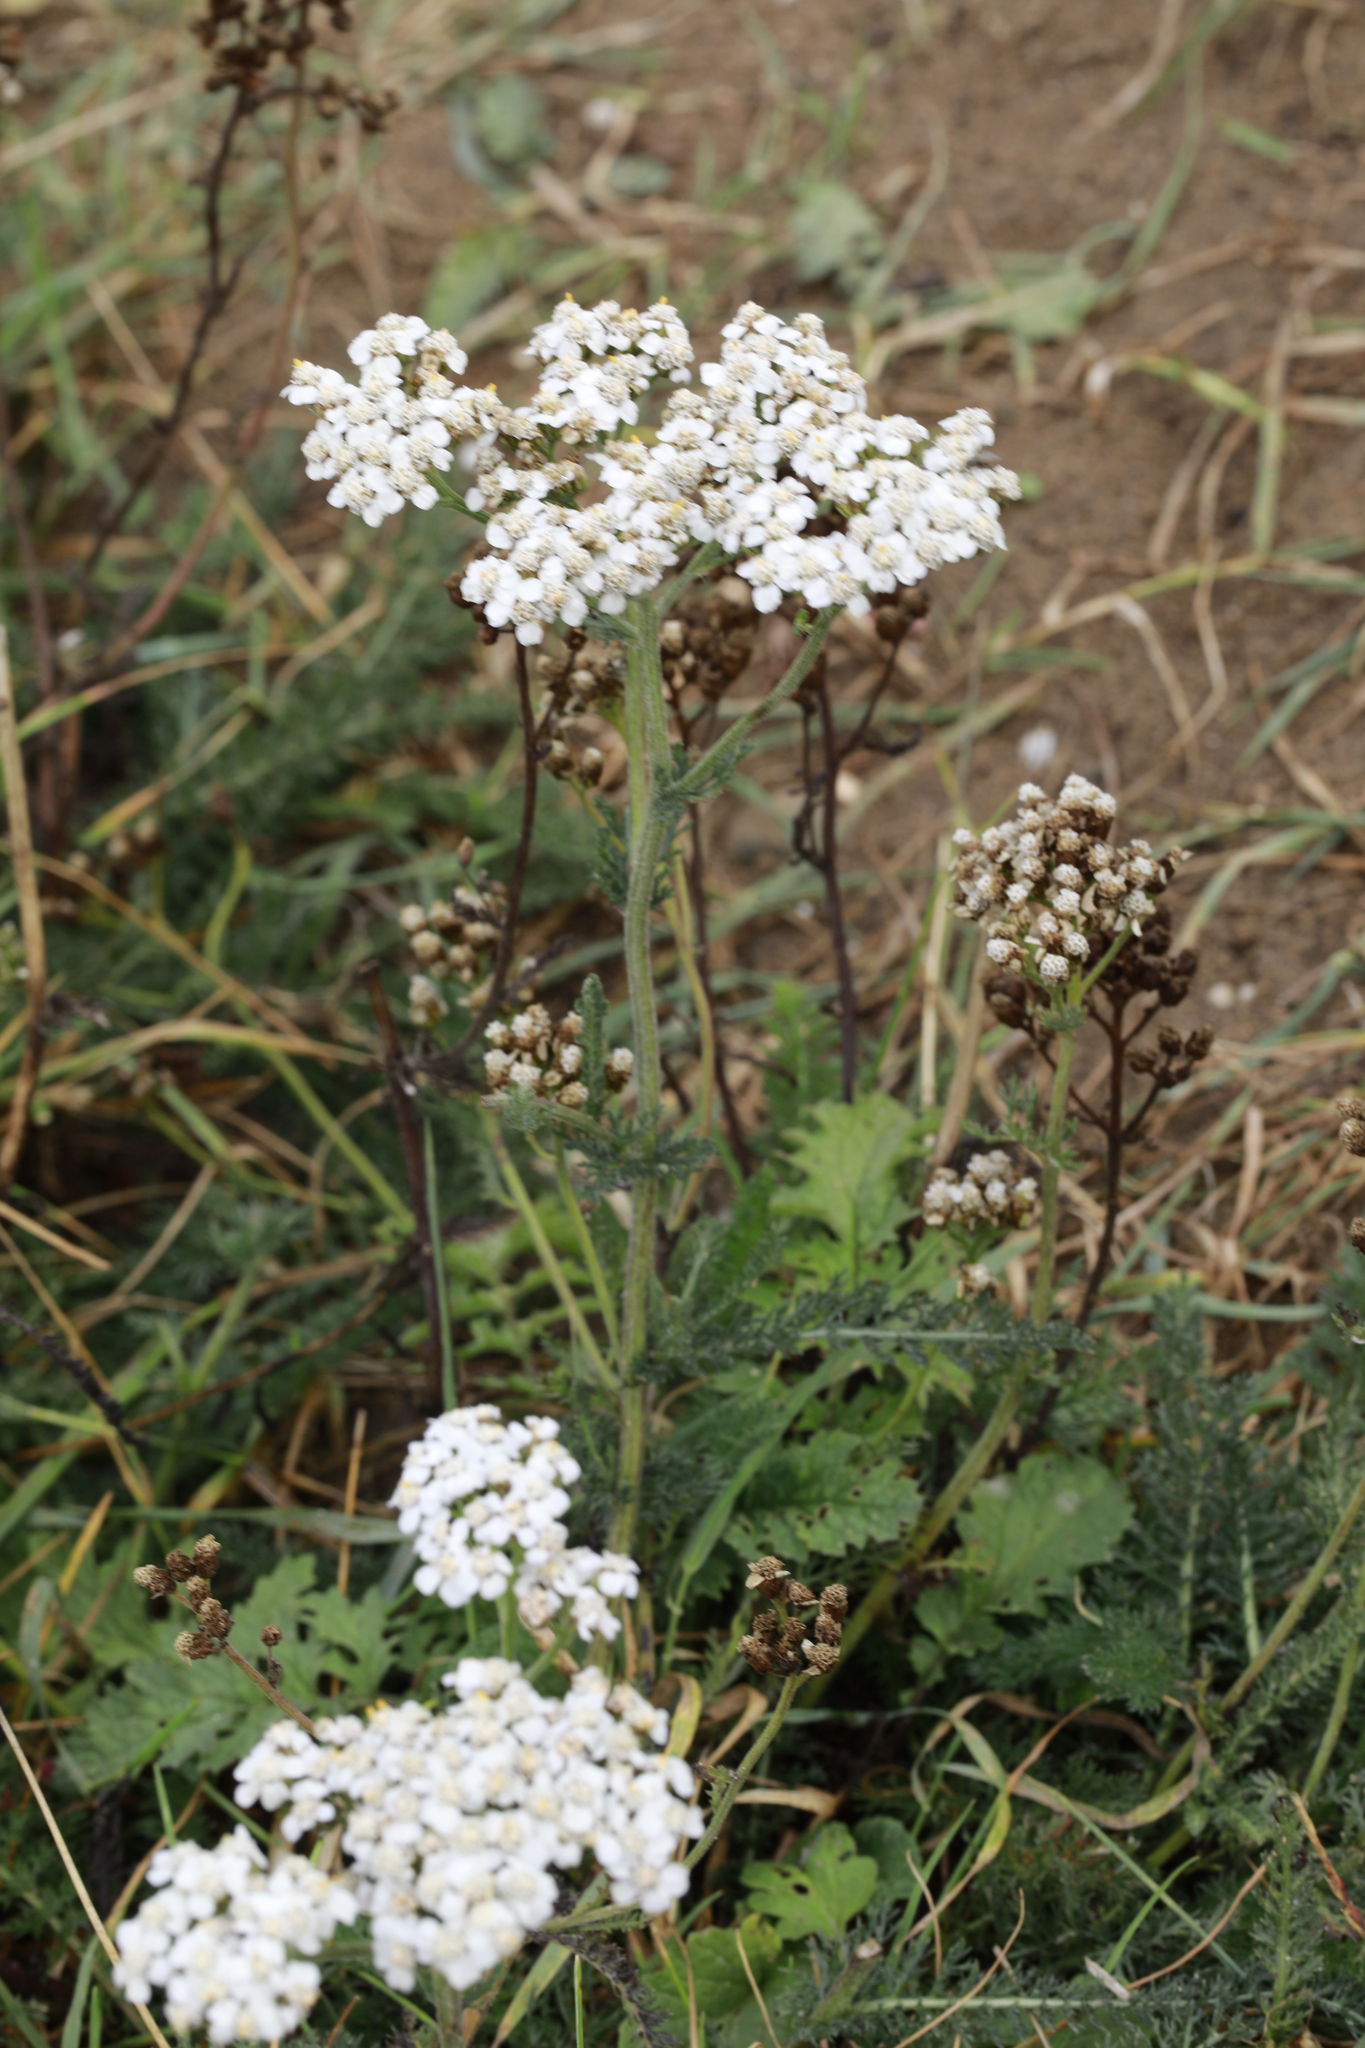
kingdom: Plantae
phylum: Tracheophyta
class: Magnoliopsida
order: Asterales
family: Asteraceae
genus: Achillea
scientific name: Achillea millefolium
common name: Yarrow
